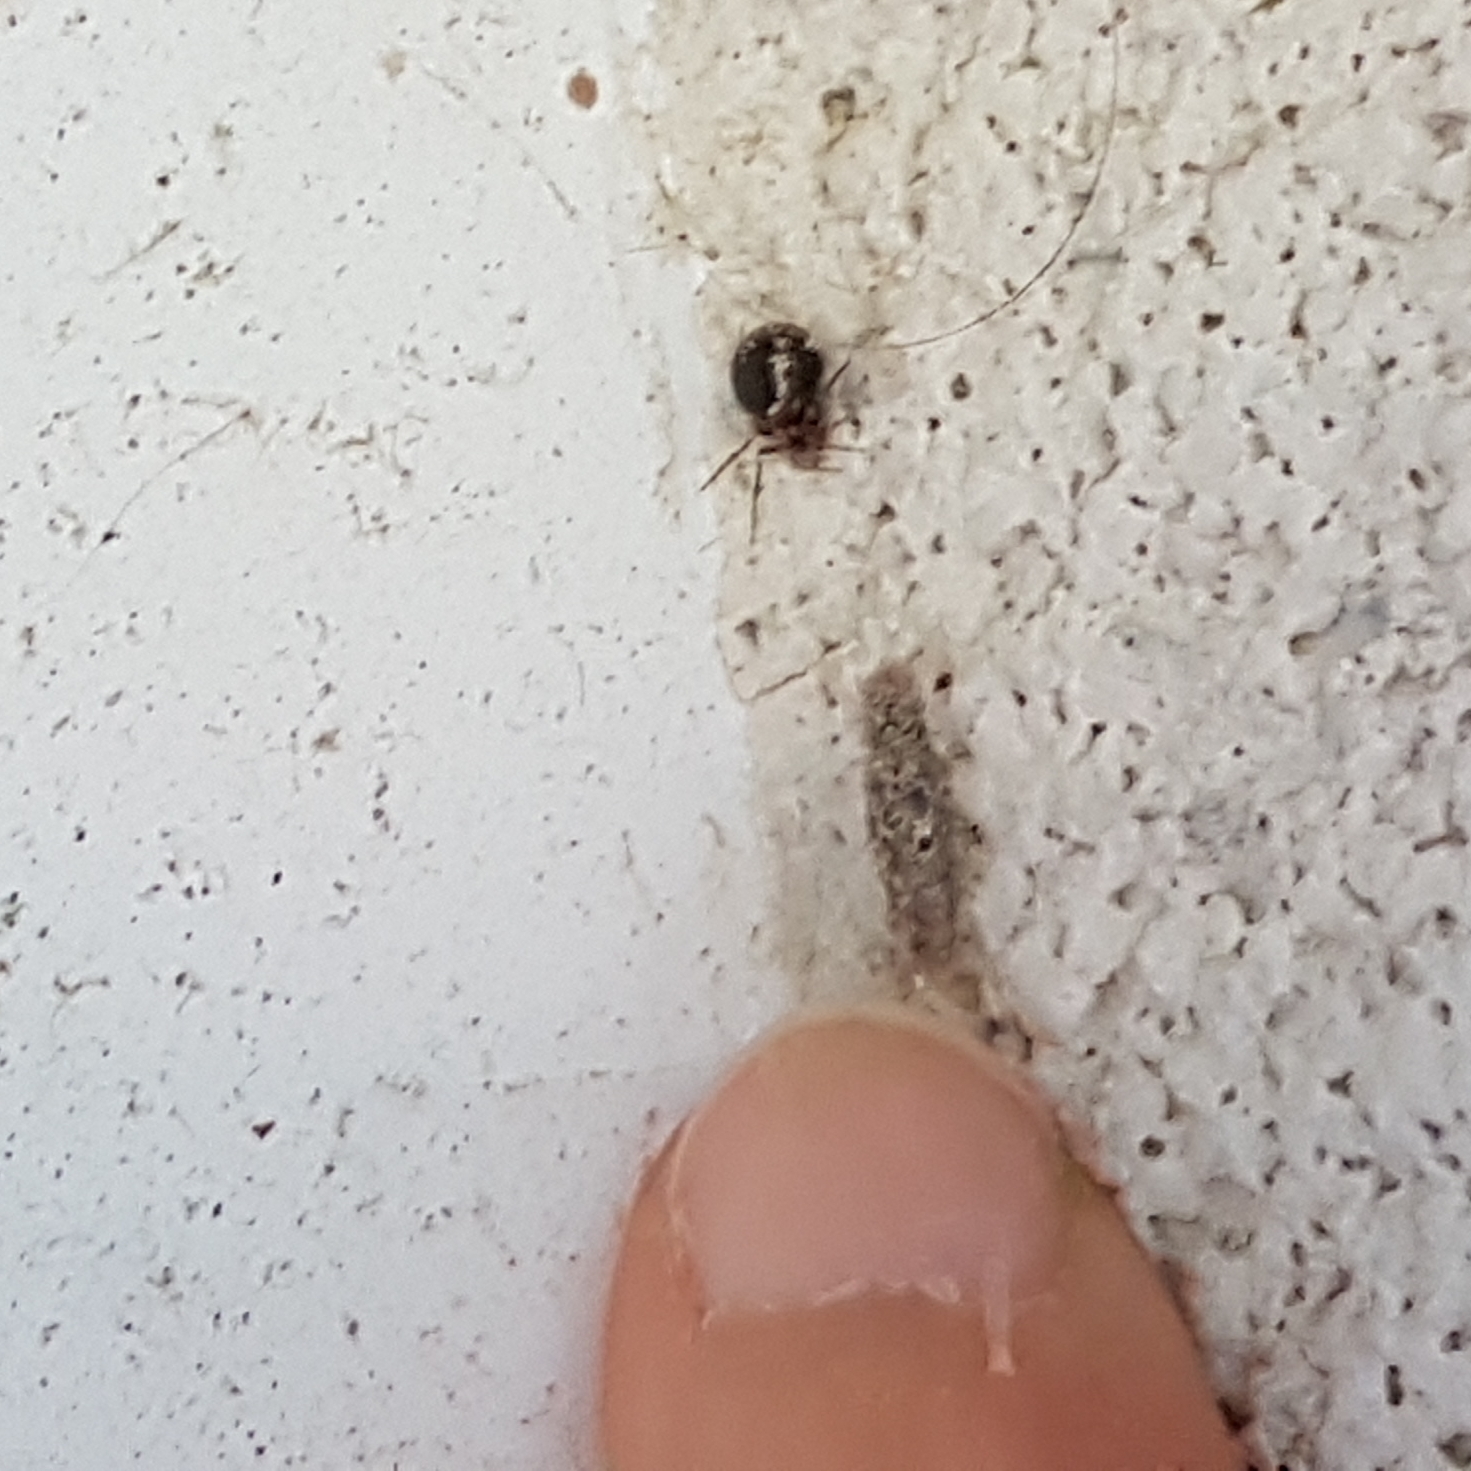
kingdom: Animalia
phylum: Arthropoda
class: Arachnida
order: Araneae
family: Theridiidae
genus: Sardinidion
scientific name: Sardinidion blackwalli
